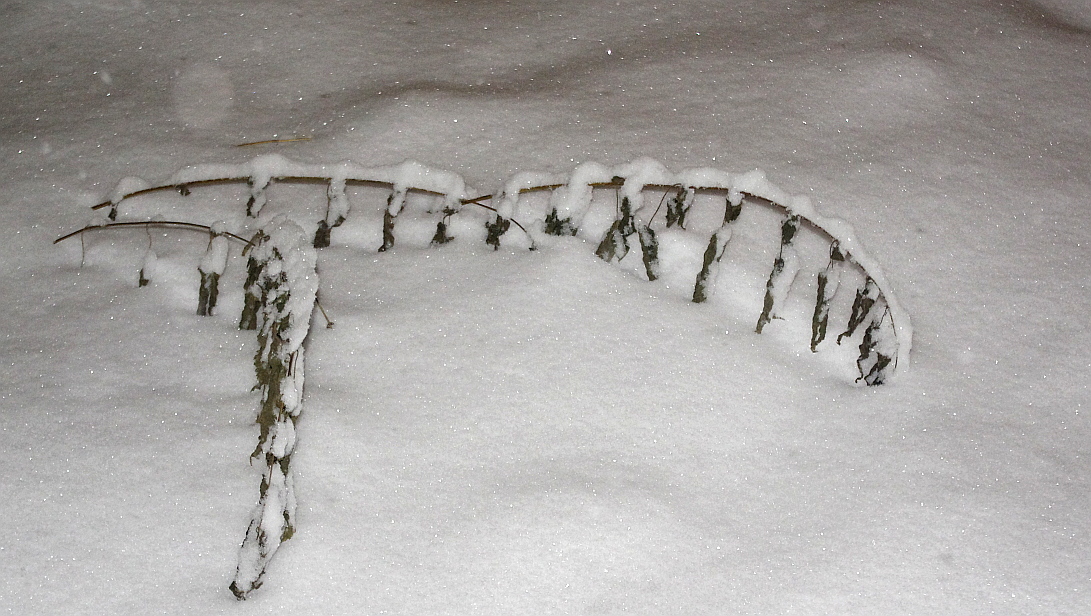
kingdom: Plantae
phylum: Tracheophyta
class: Magnoliopsida
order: Rosales
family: Urticaceae
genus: Urtica
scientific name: Urtica dioica
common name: Common nettle
